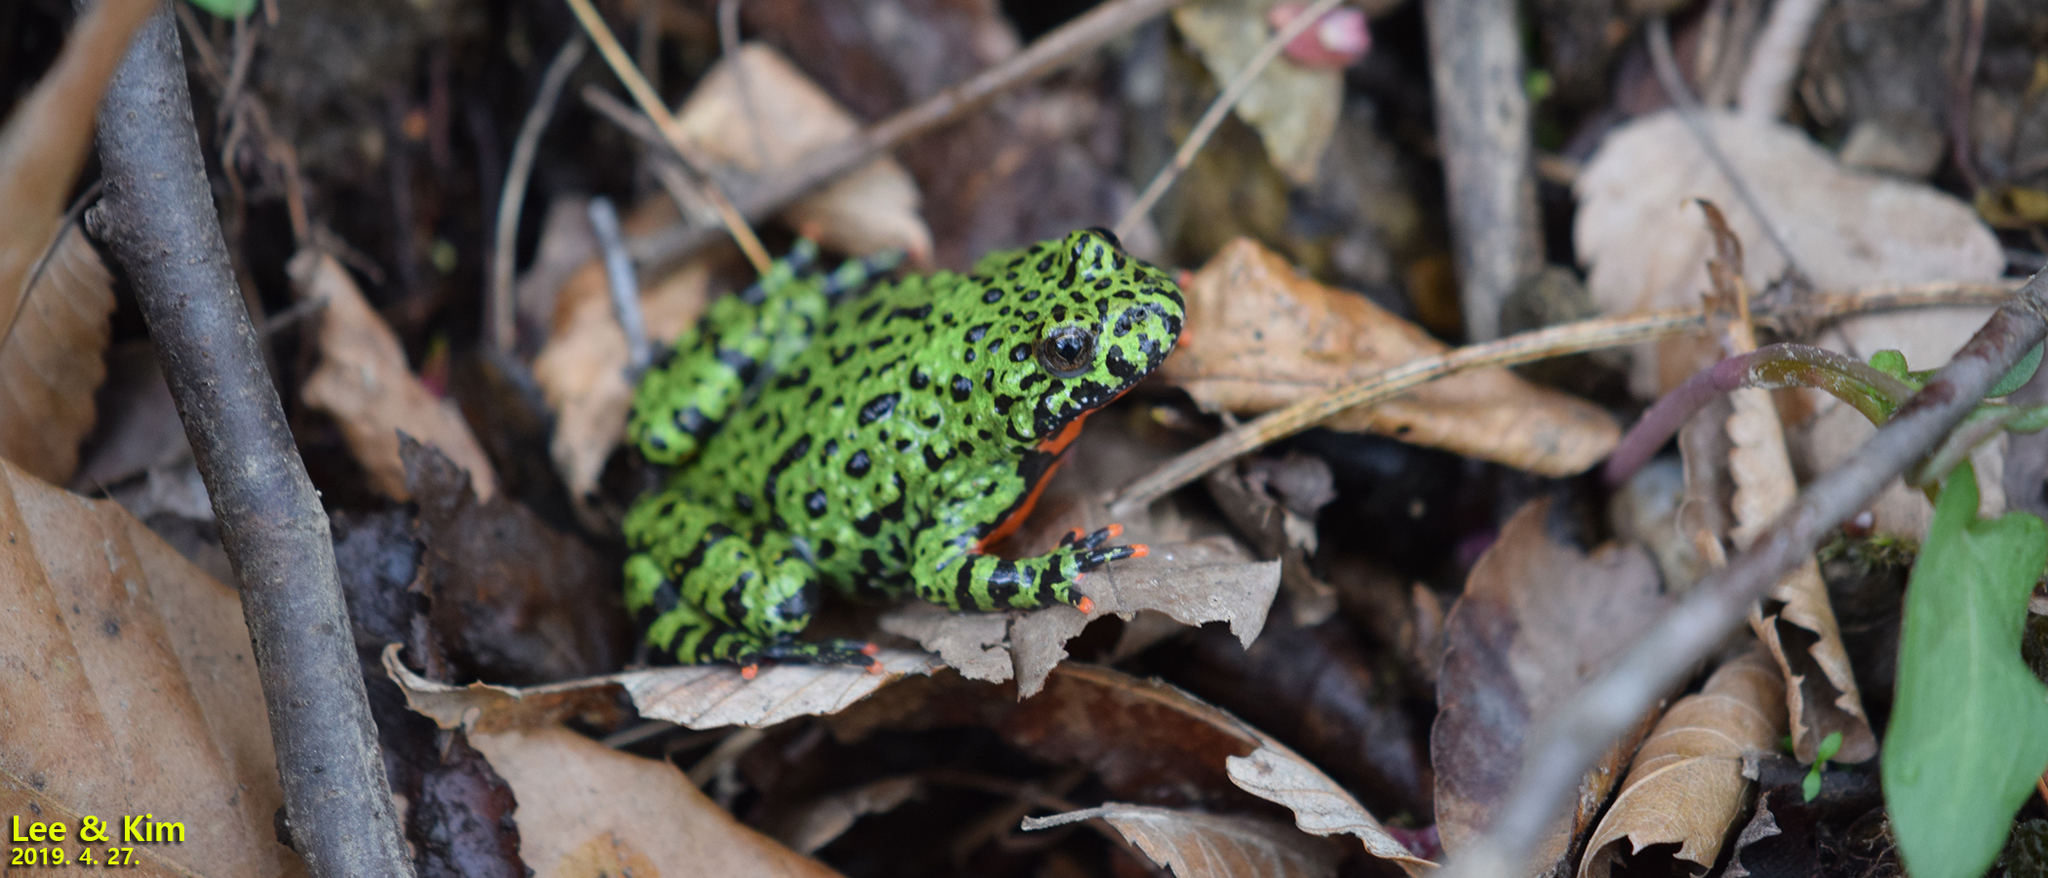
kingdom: Animalia
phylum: Chordata
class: Amphibia
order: Anura
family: Bombinatoridae
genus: Bombina
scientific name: Bombina orientalis
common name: Oriental firebelly toad
